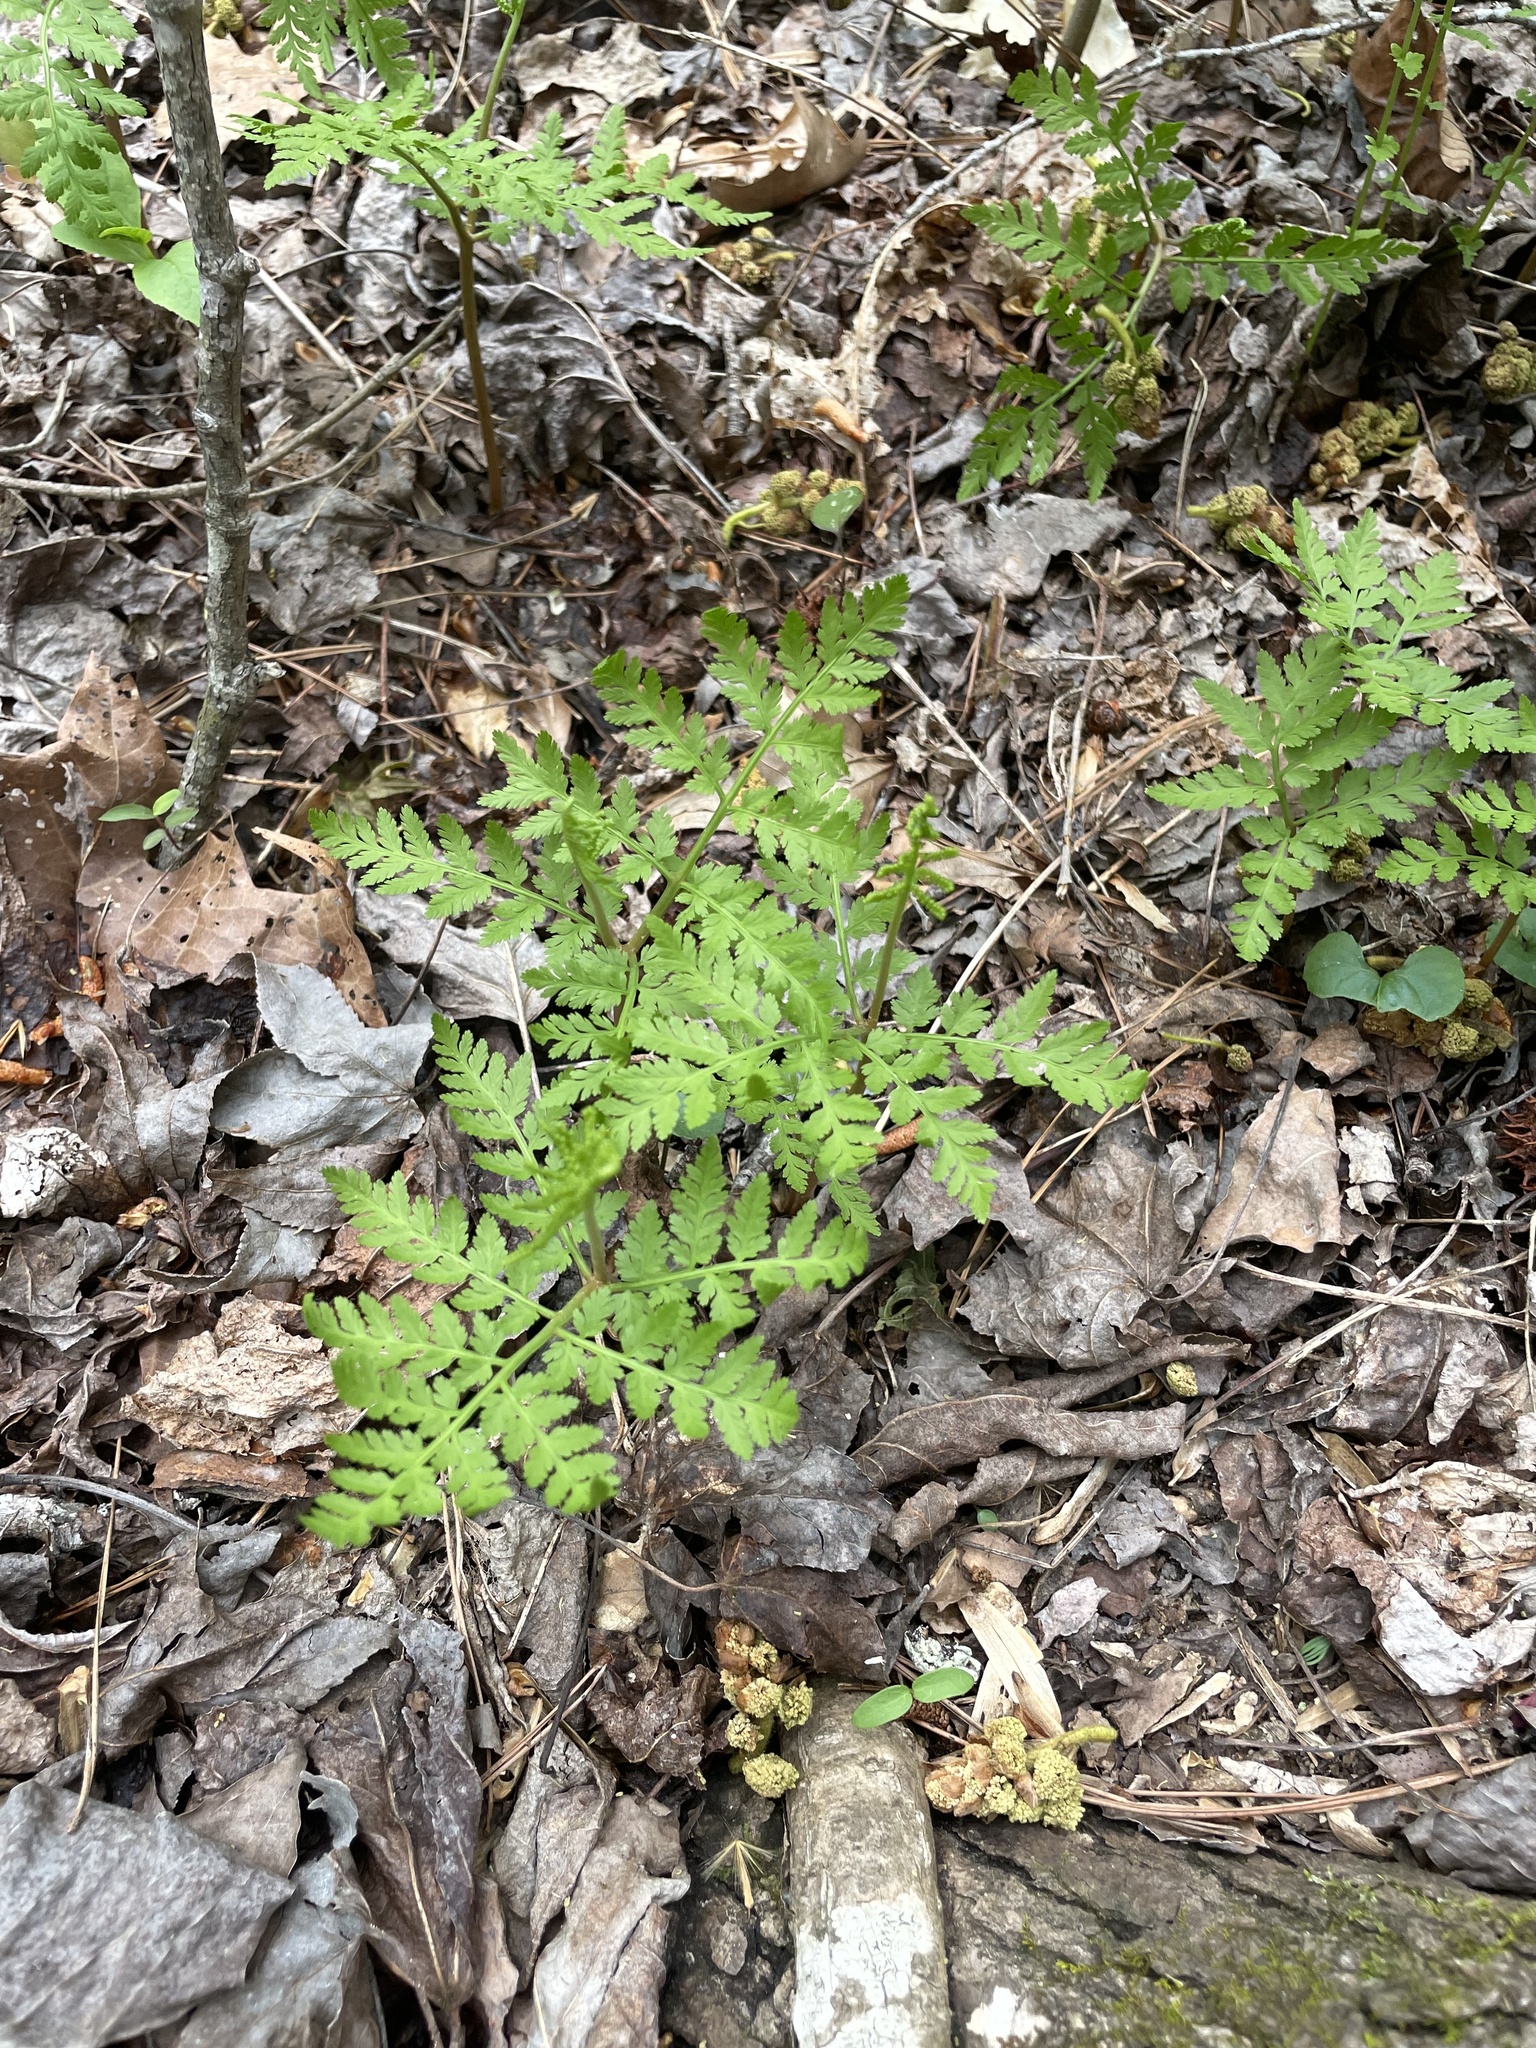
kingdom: Plantae
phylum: Tracheophyta
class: Polypodiopsida
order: Ophioglossales
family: Ophioglossaceae
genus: Botrypus
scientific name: Botrypus virginianus
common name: Common grapefern
